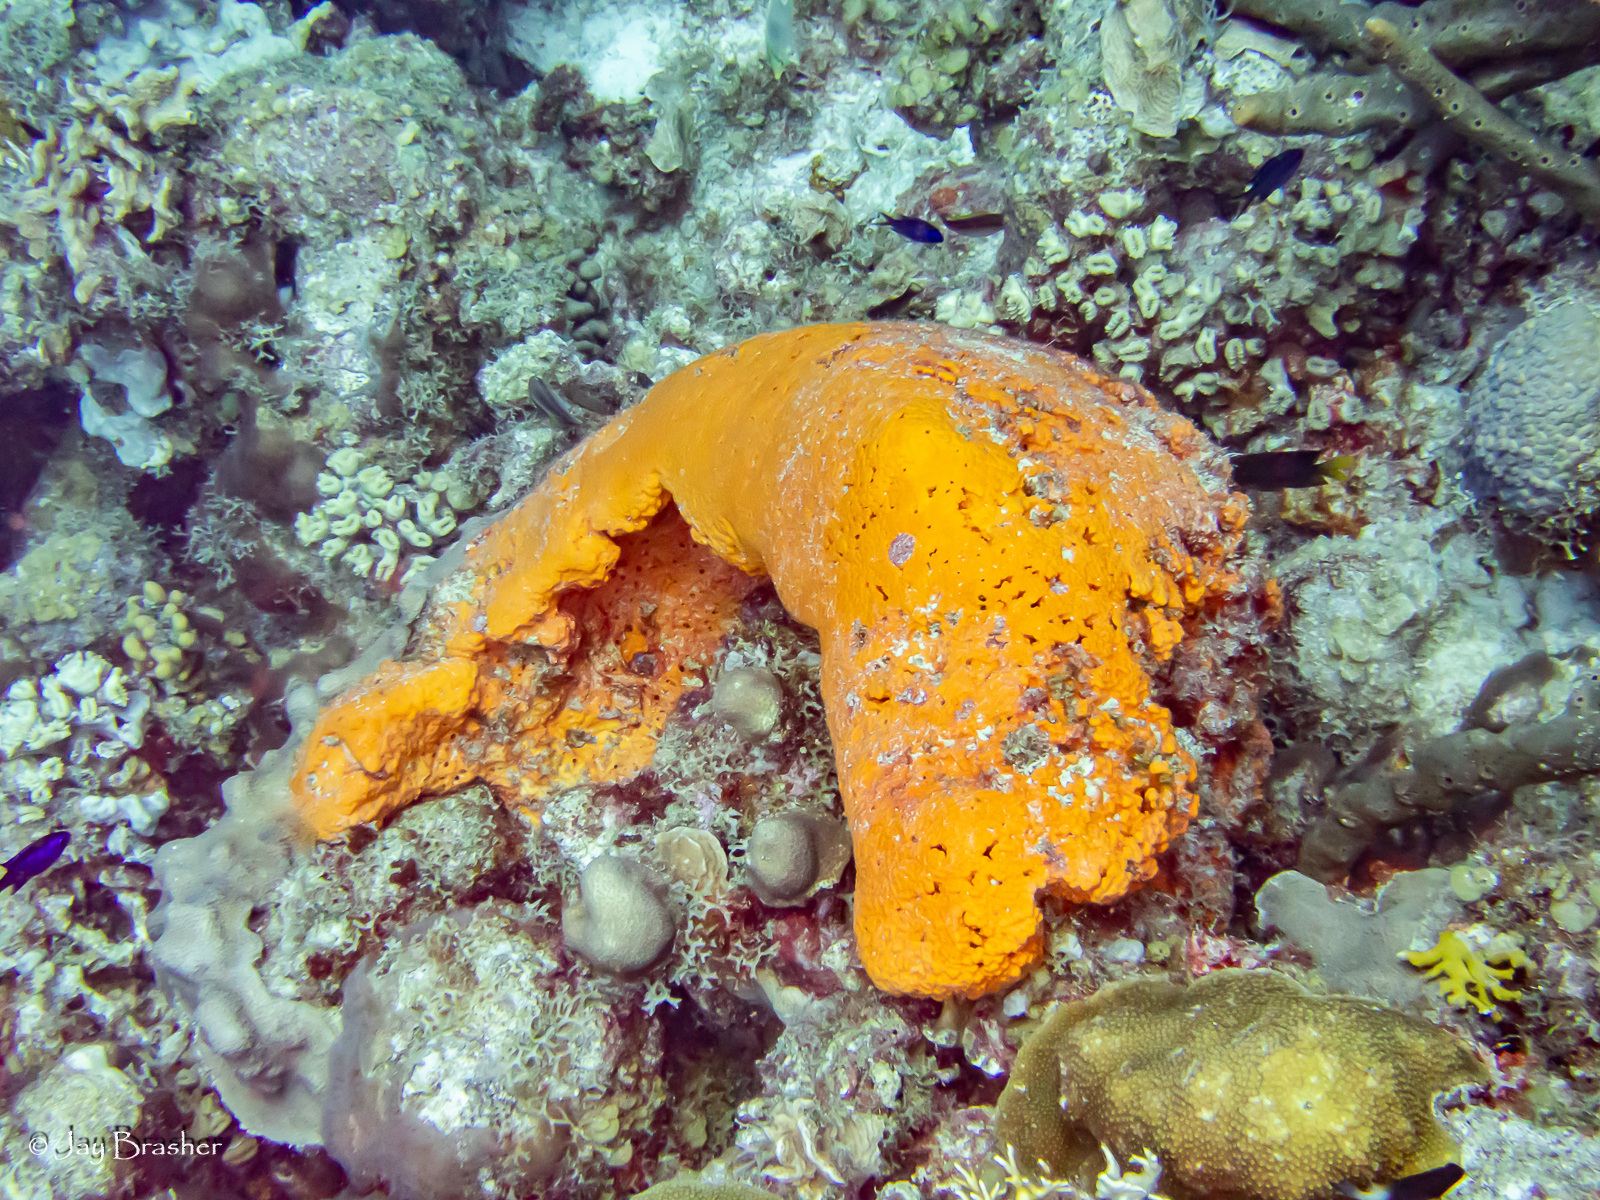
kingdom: Animalia
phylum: Porifera
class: Demospongiae
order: Agelasida
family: Agelasidae
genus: Agelas
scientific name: Agelas clathrodes
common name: Orange elephant ear sponge
